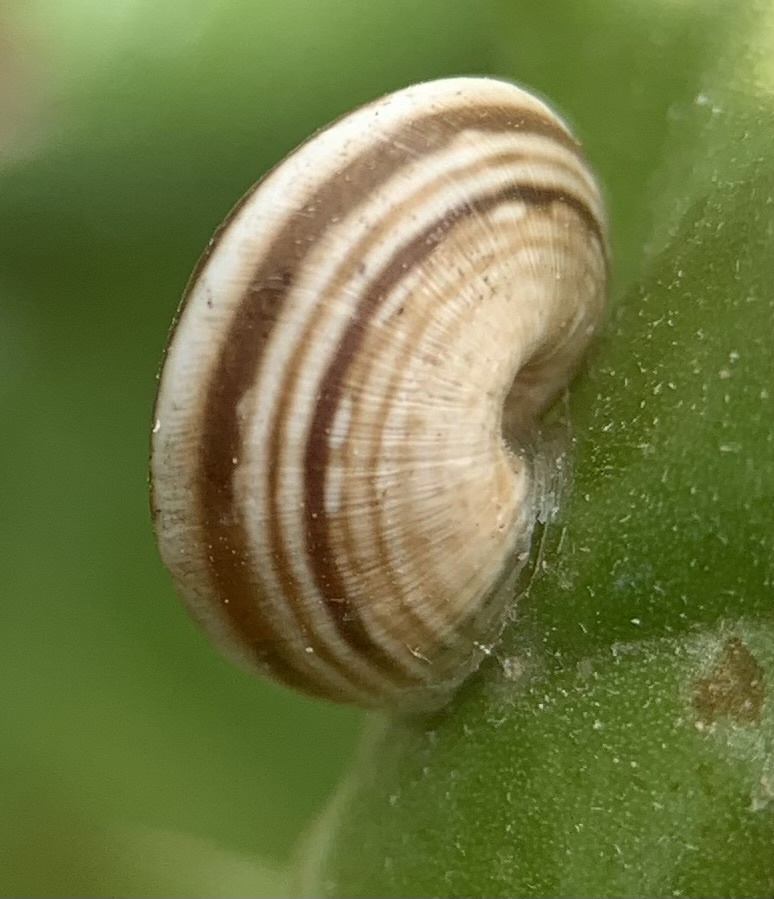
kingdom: Animalia
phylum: Mollusca
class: Gastropoda
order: Stylommatophora
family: Geomitridae
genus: Cernuella
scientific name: Cernuella virgata
